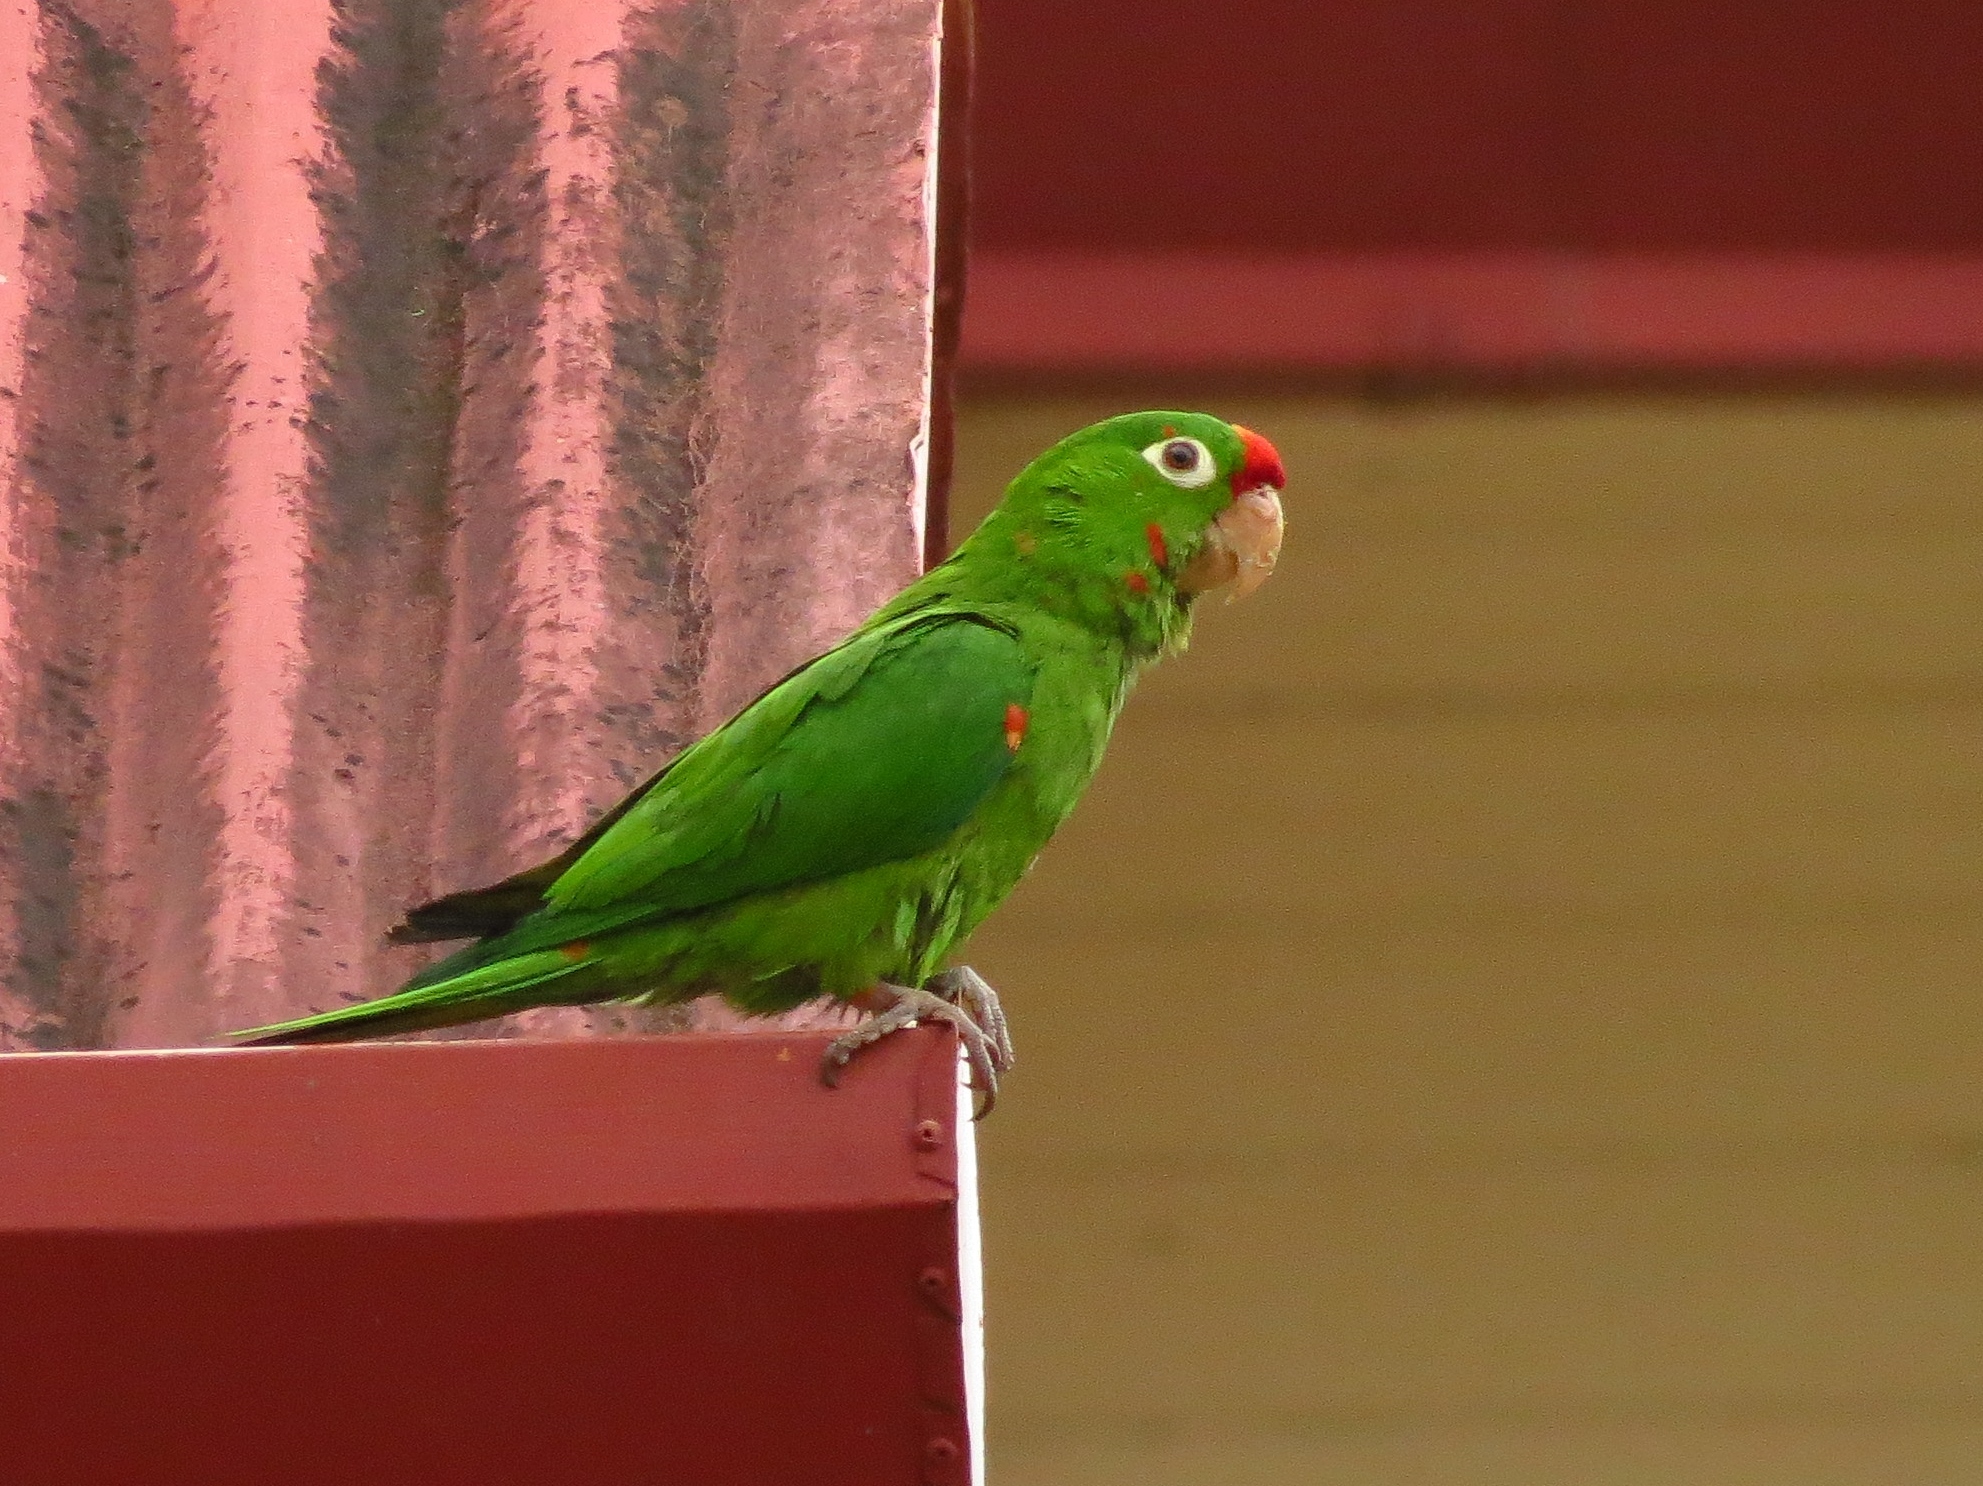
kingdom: Animalia
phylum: Chordata
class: Aves
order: Psittaciformes
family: Psittacidae
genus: Aratinga
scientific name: Aratinga finschi
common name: Crimson-fronted parakeet
